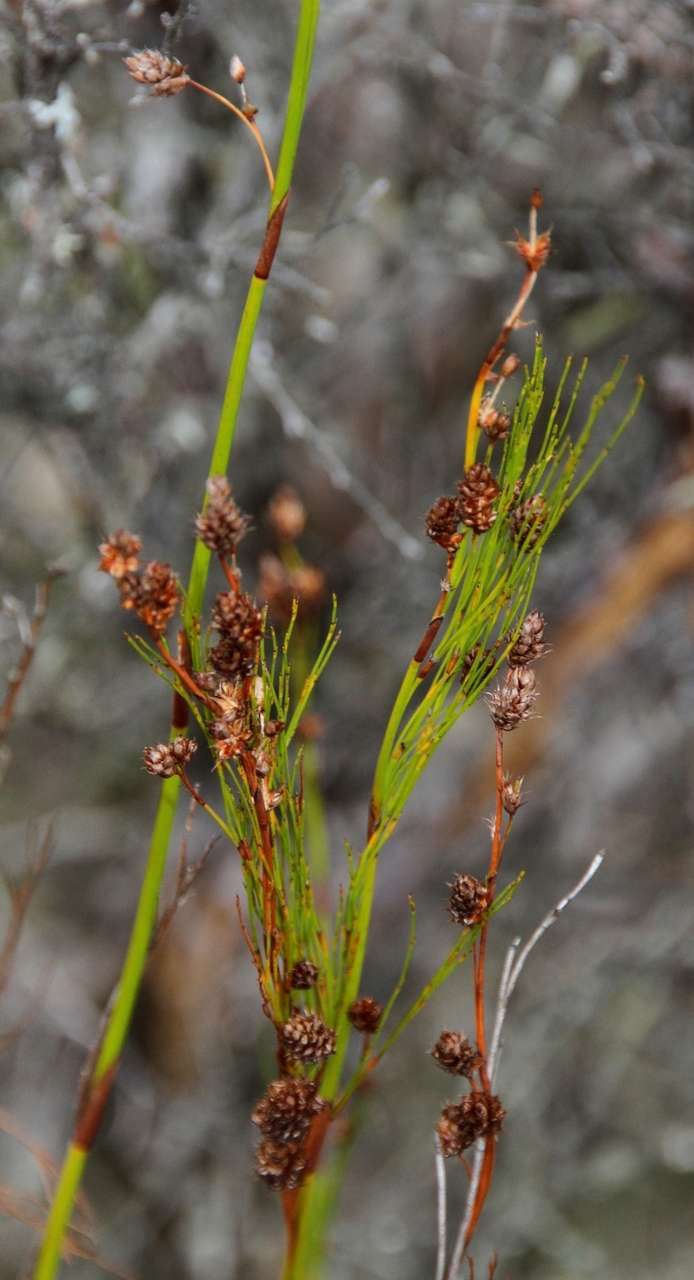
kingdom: Plantae
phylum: Tracheophyta
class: Liliopsida
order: Poales
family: Restionaceae
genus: Baloskion
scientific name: Baloskion tetraphyllum
